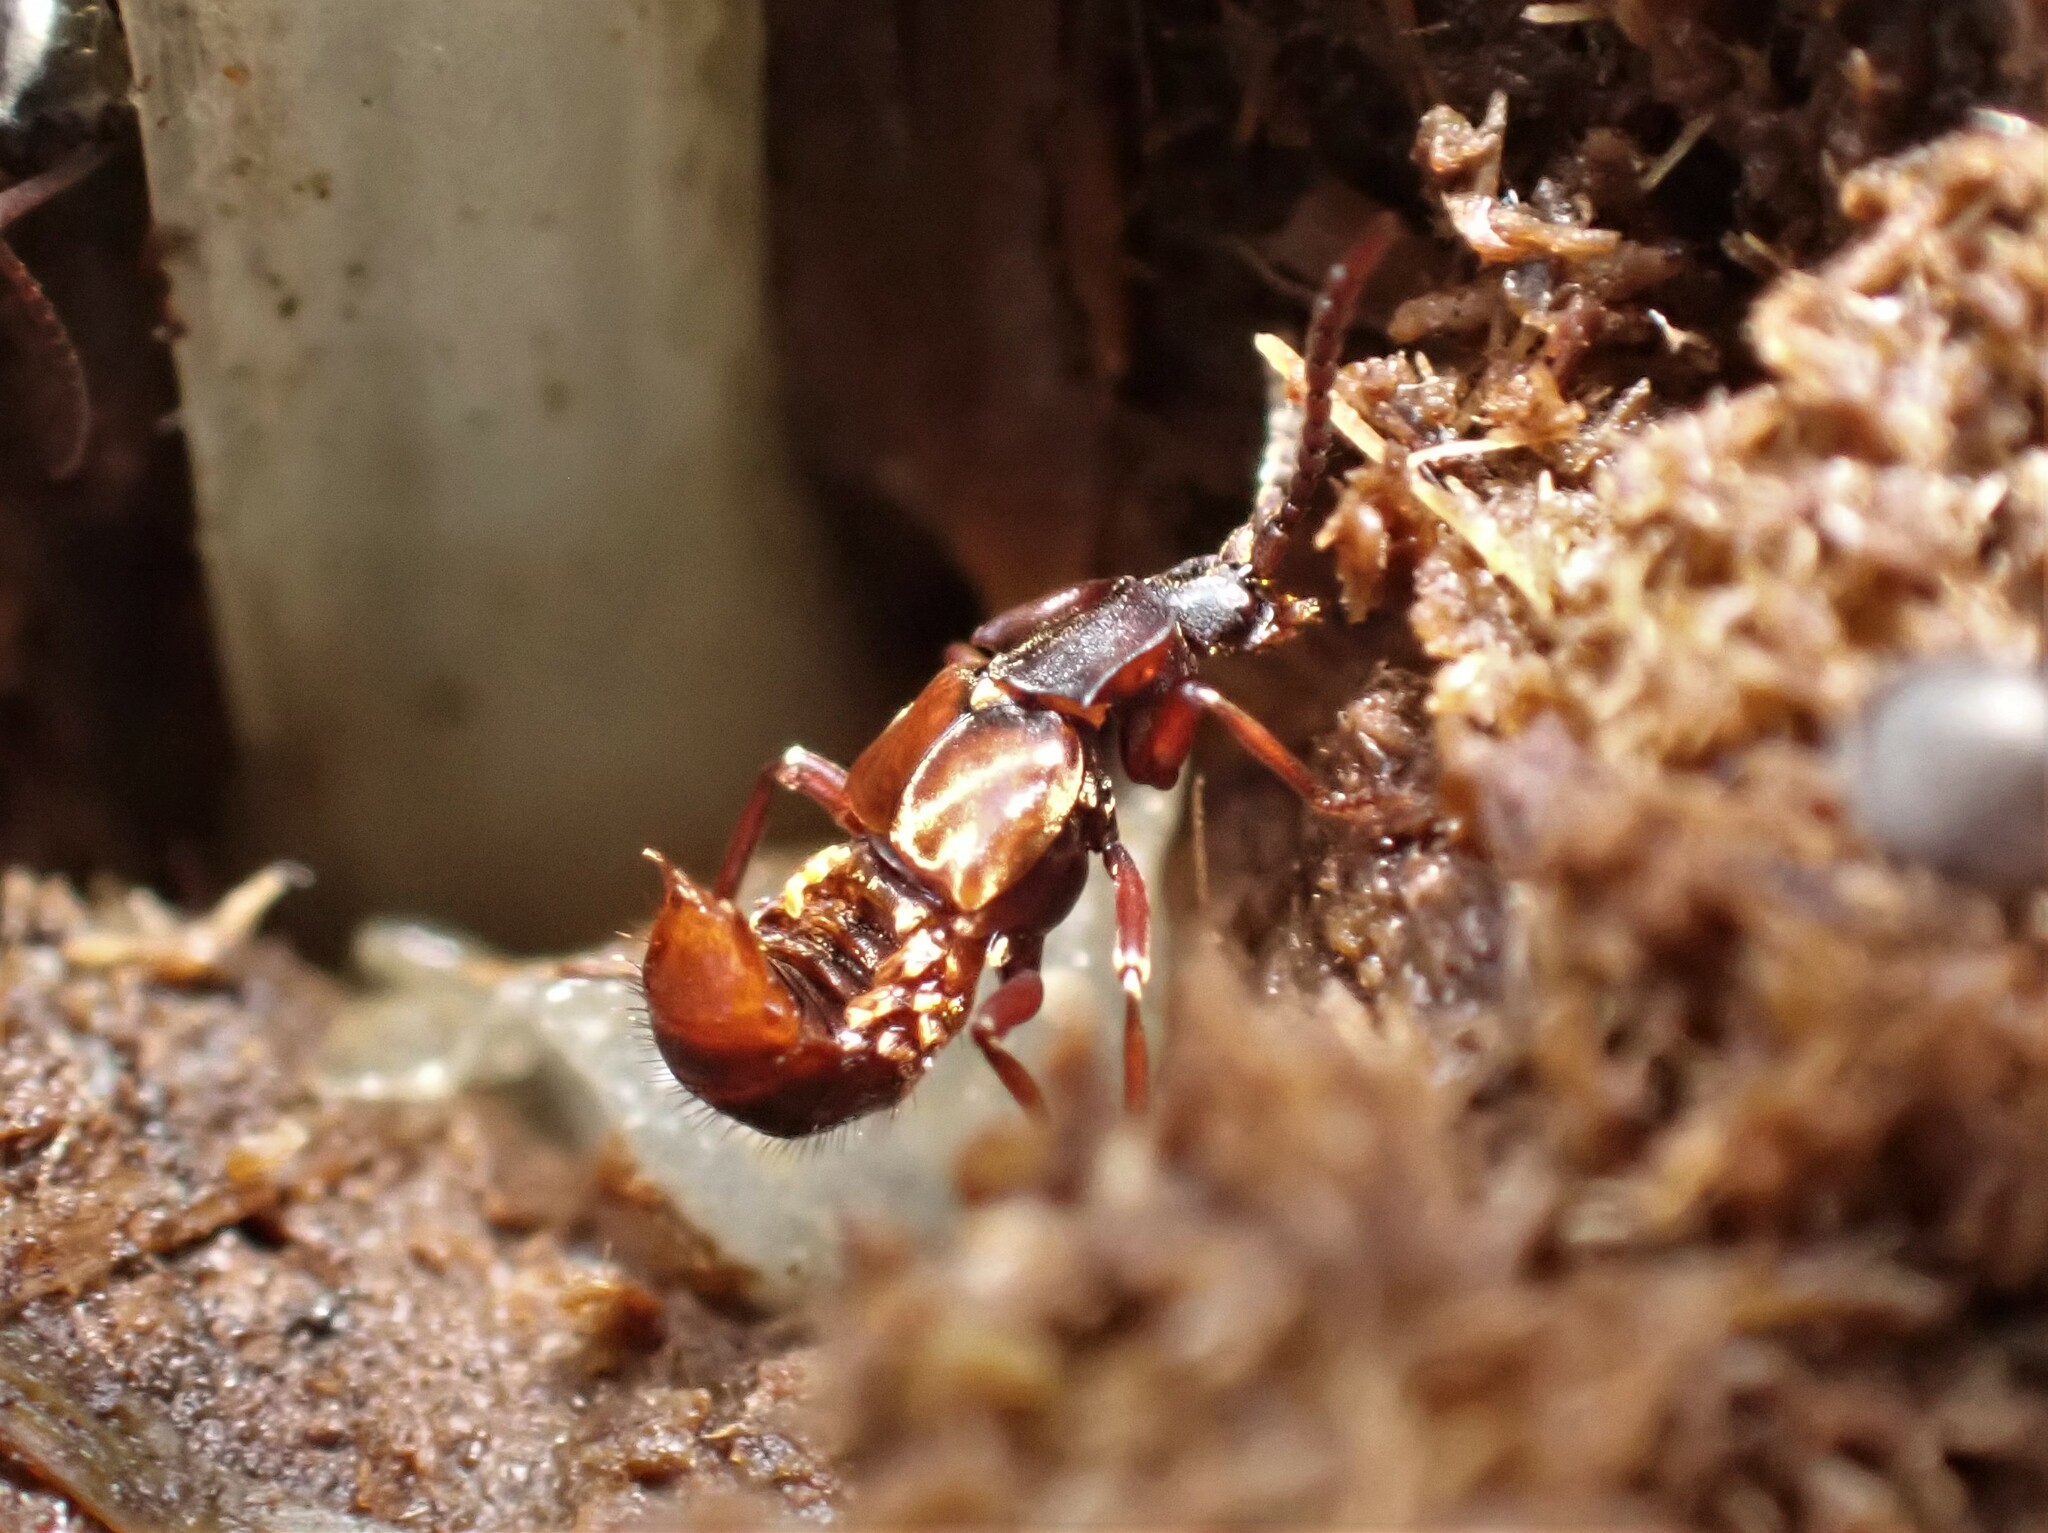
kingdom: Animalia
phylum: Arthropoda
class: Insecta
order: Coleoptera
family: Staphylinidae
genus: Lomechusa
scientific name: Lomechusa emarginata
